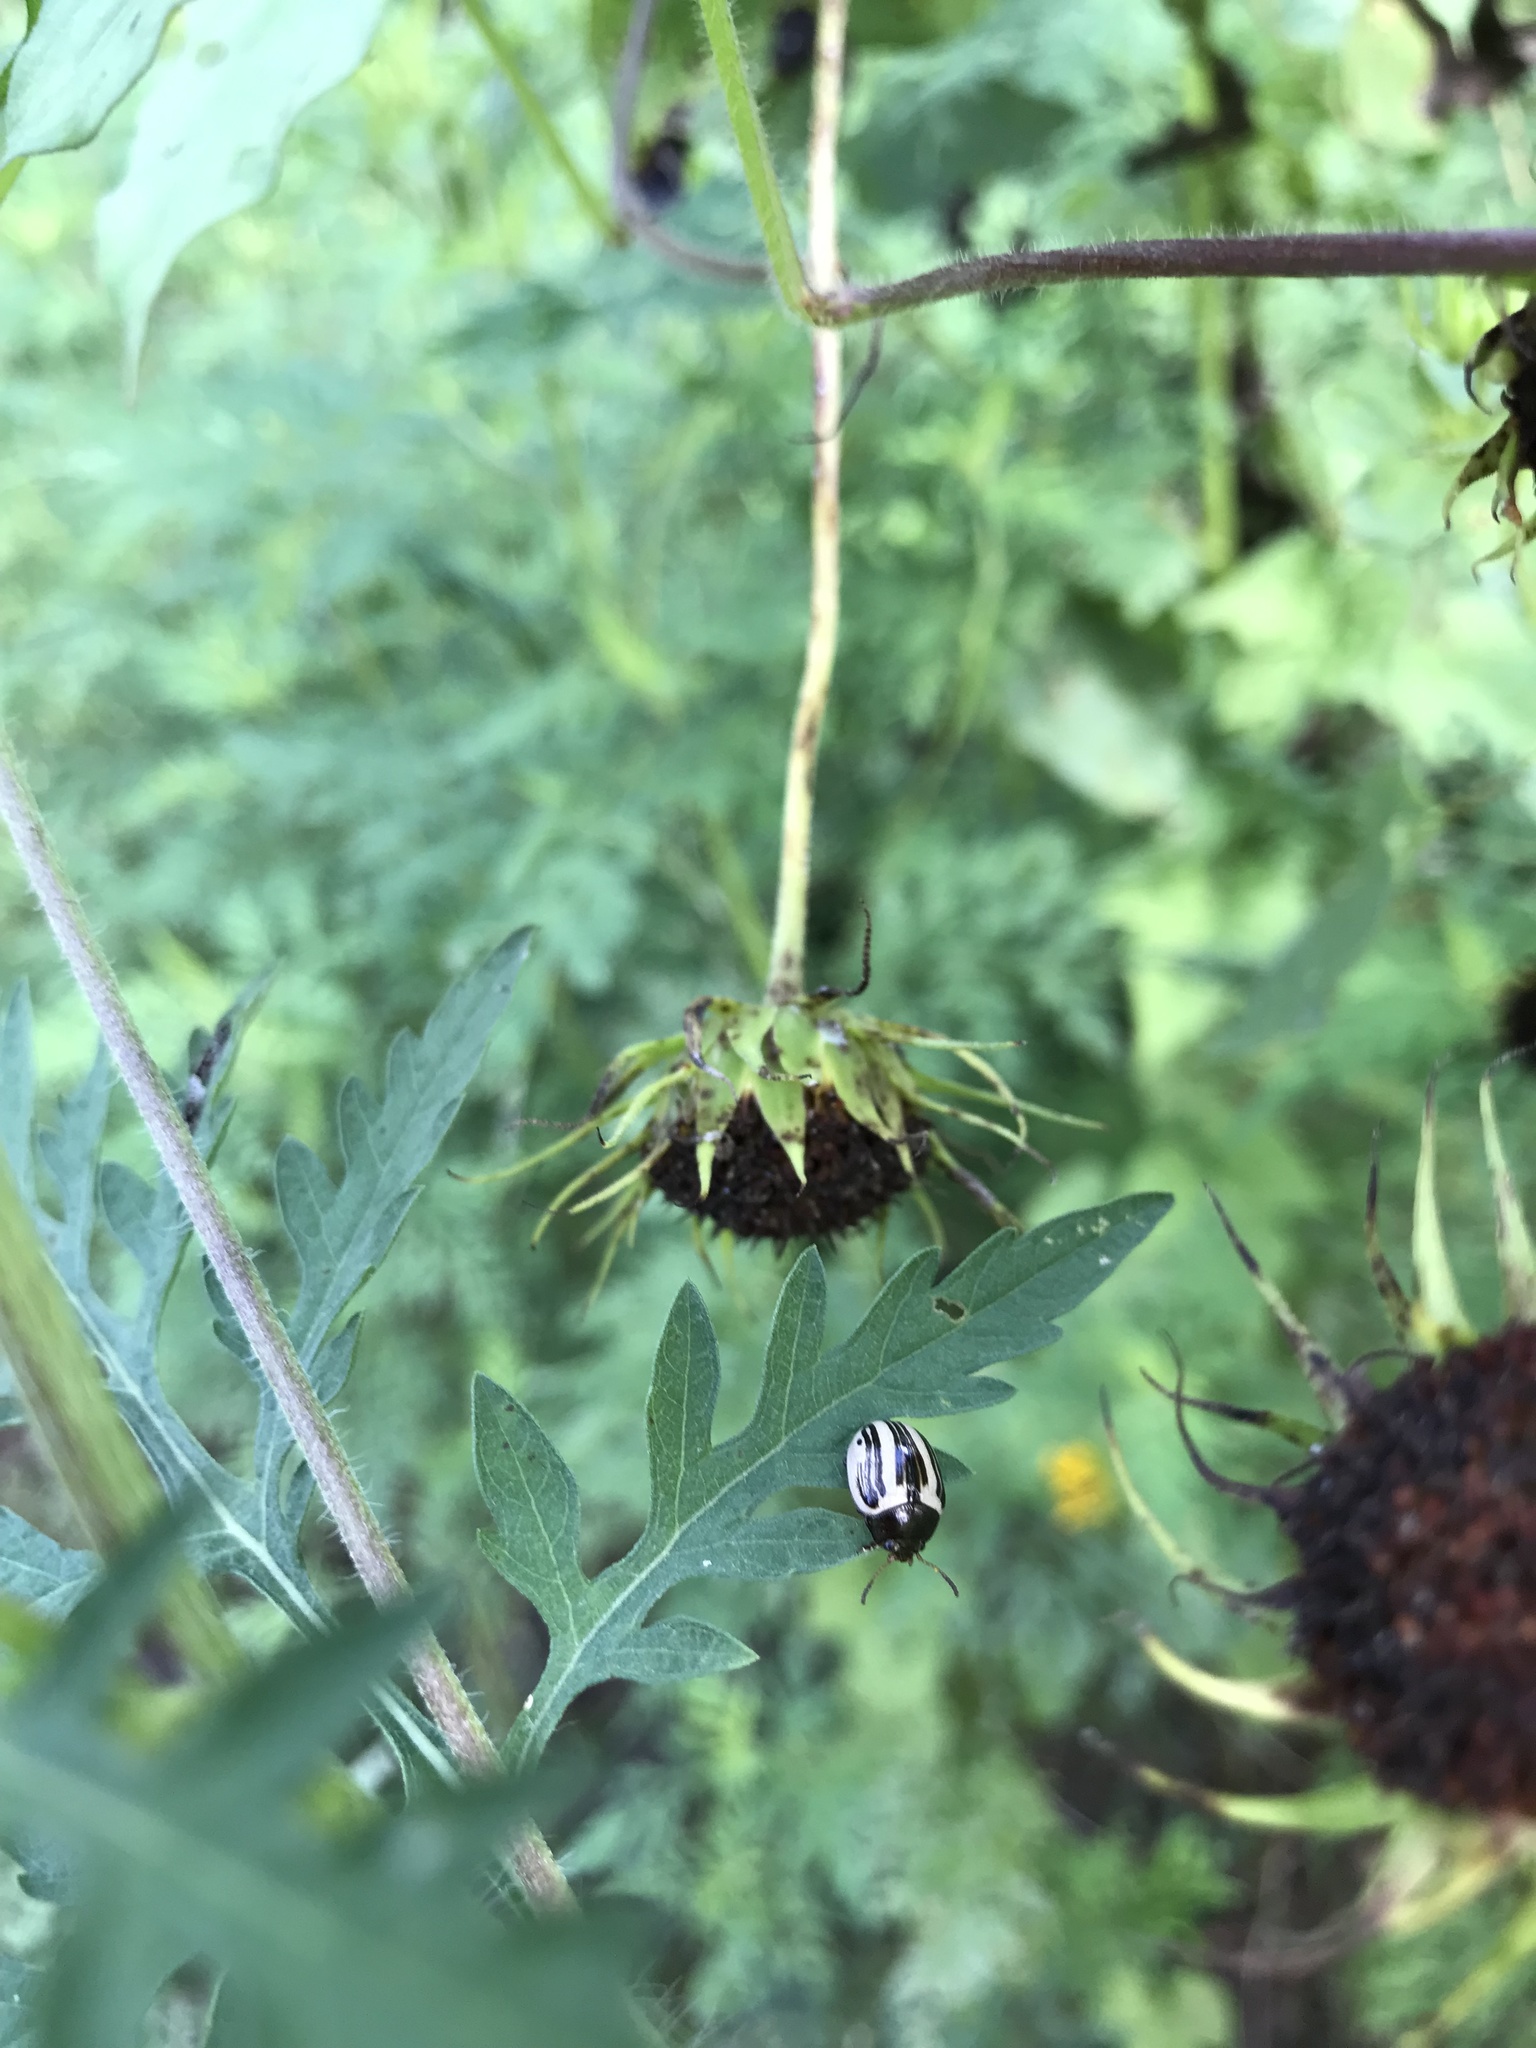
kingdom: Animalia
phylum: Arthropoda
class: Insecta
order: Coleoptera
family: Chrysomelidae
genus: Calligrapha
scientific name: Calligrapha
